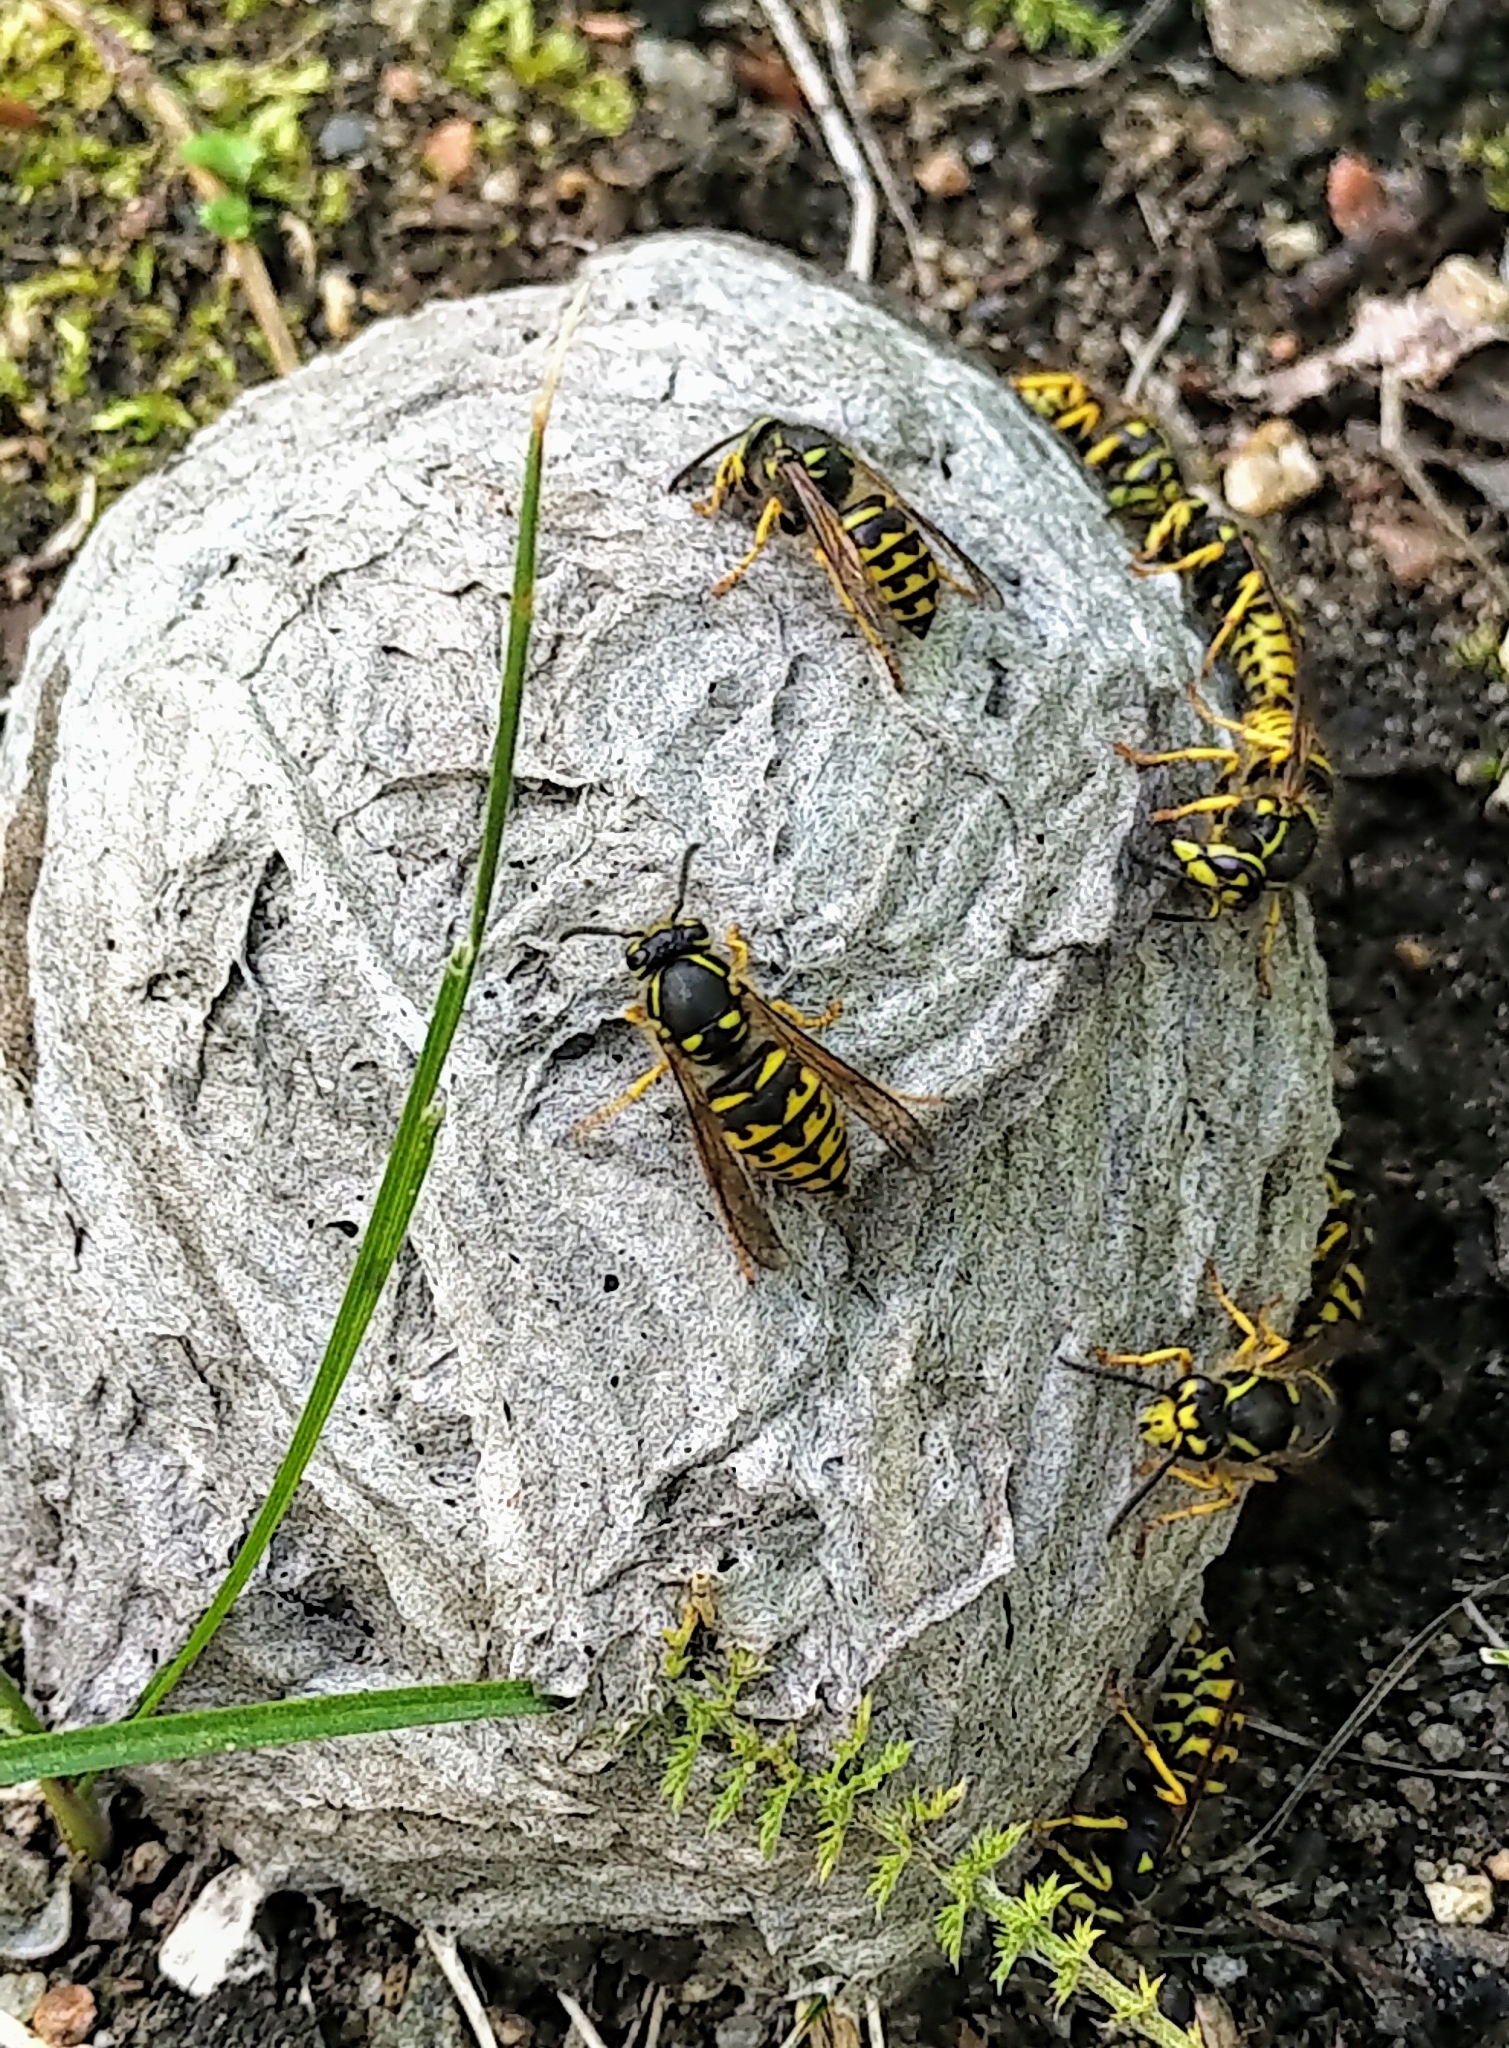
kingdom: Animalia
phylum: Arthropoda
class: Insecta
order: Hymenoptera
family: Vespidae
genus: Dolichovespula
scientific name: Dolichovespula arenaria
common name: Aerial yellowjacket
